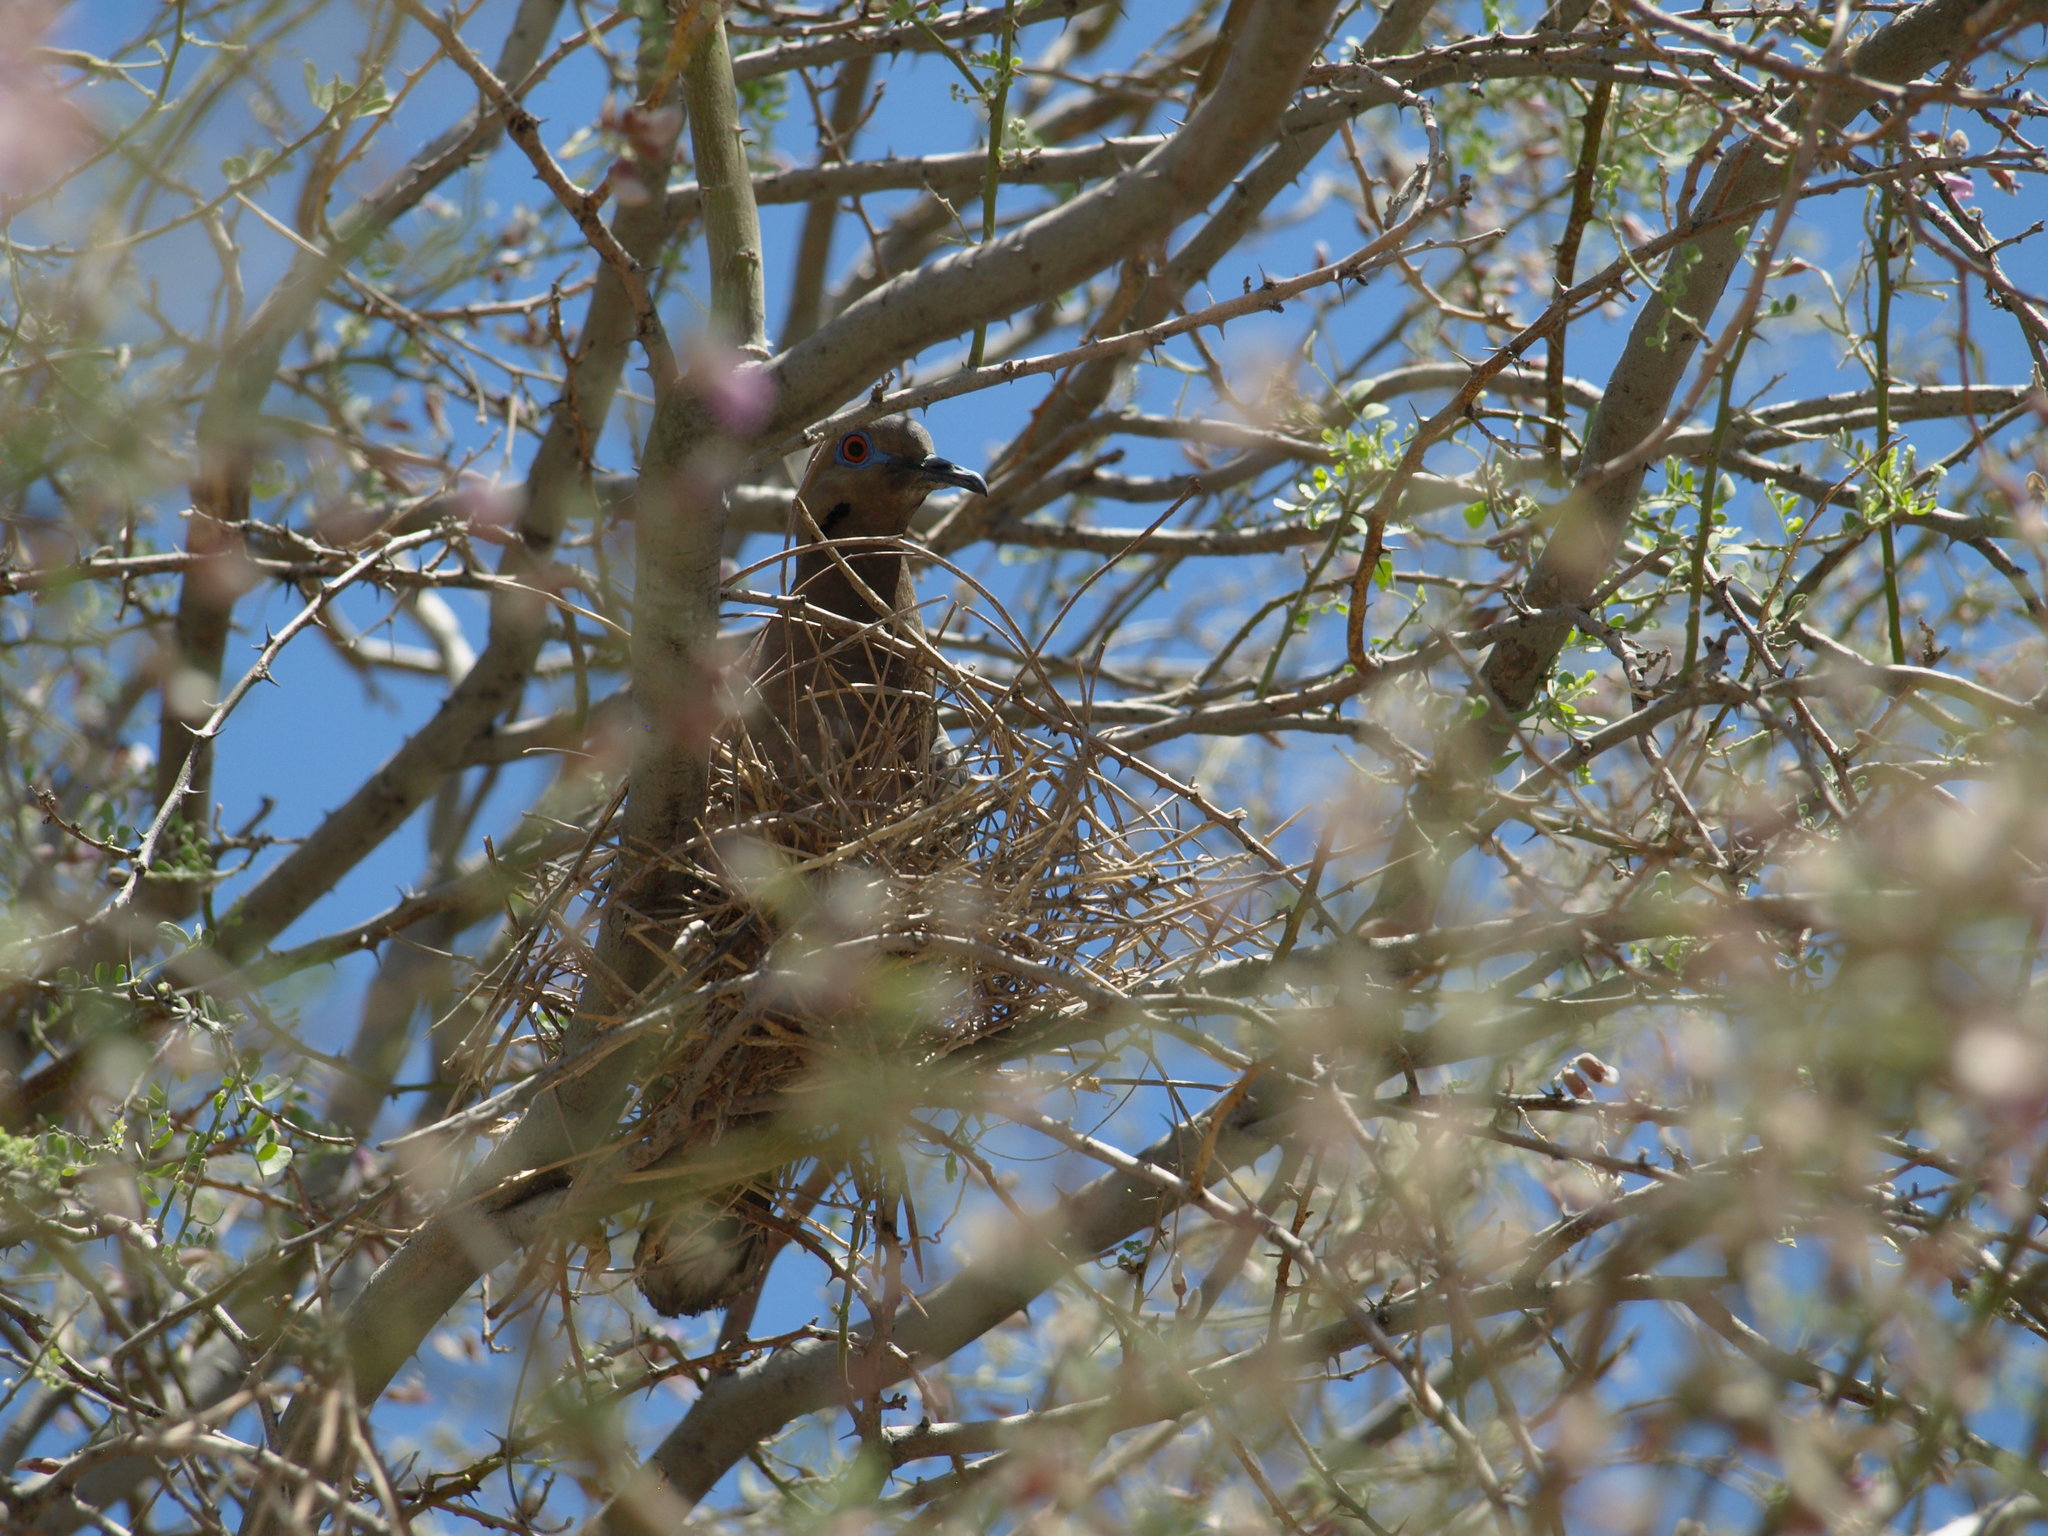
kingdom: Animalia
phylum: Chordata
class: Aves
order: Columbiformes
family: Columbidae
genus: Zenaida
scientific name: Zenaida asiatica
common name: White-winged dove
